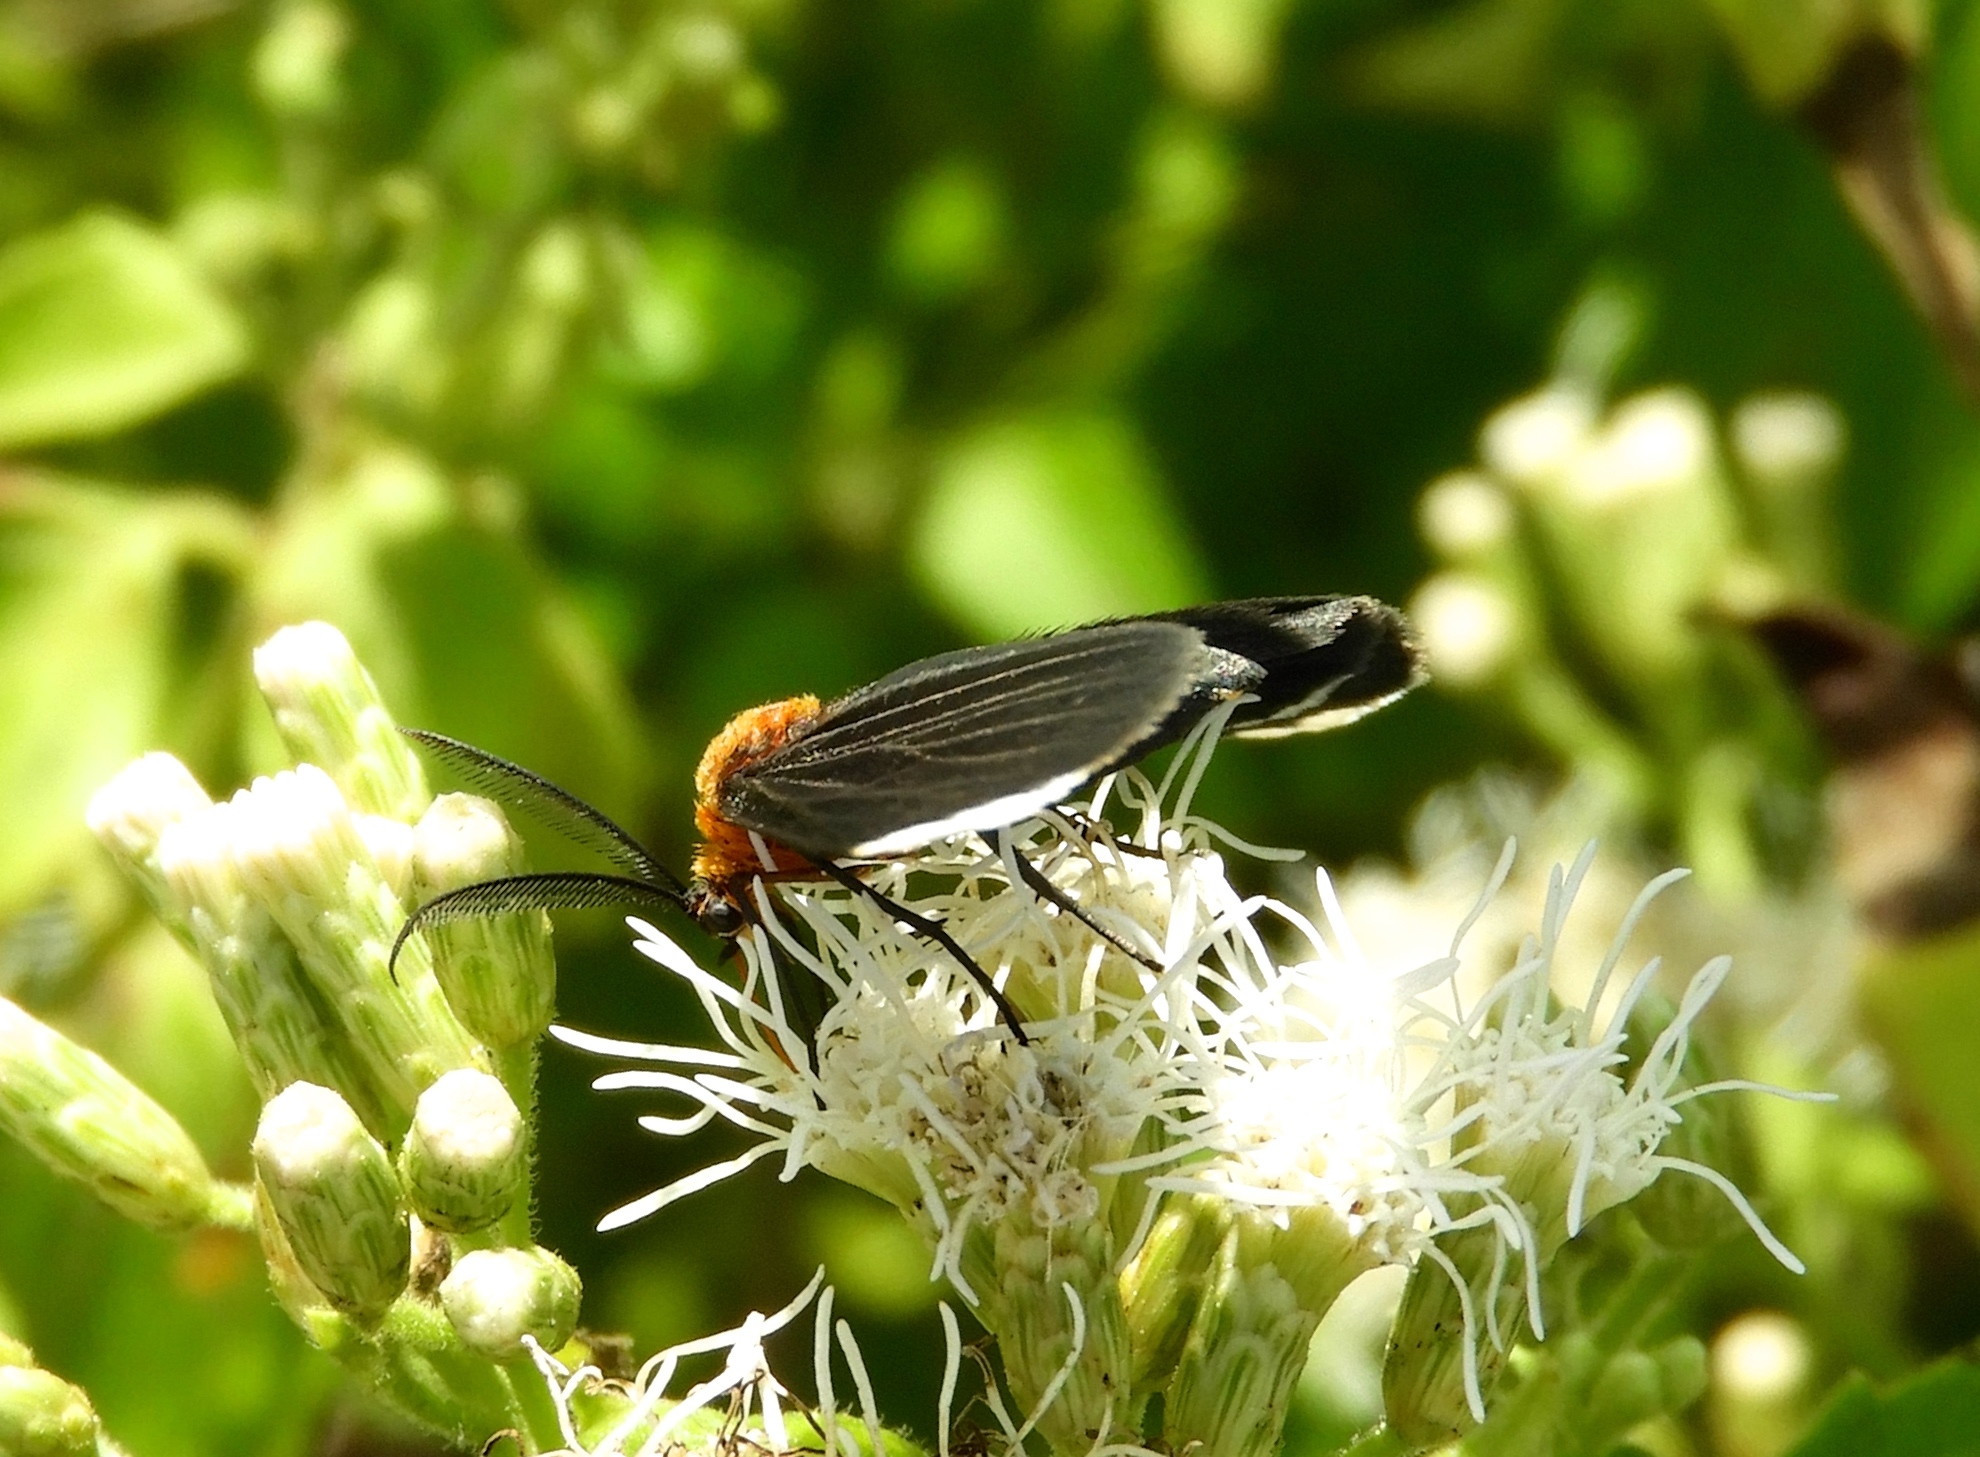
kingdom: Animalia
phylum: Arthropoda
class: Insecta
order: Lepidoptera
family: Geometridae
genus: Melanchroia
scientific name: Melanchroia chephise
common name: White-tipped black
